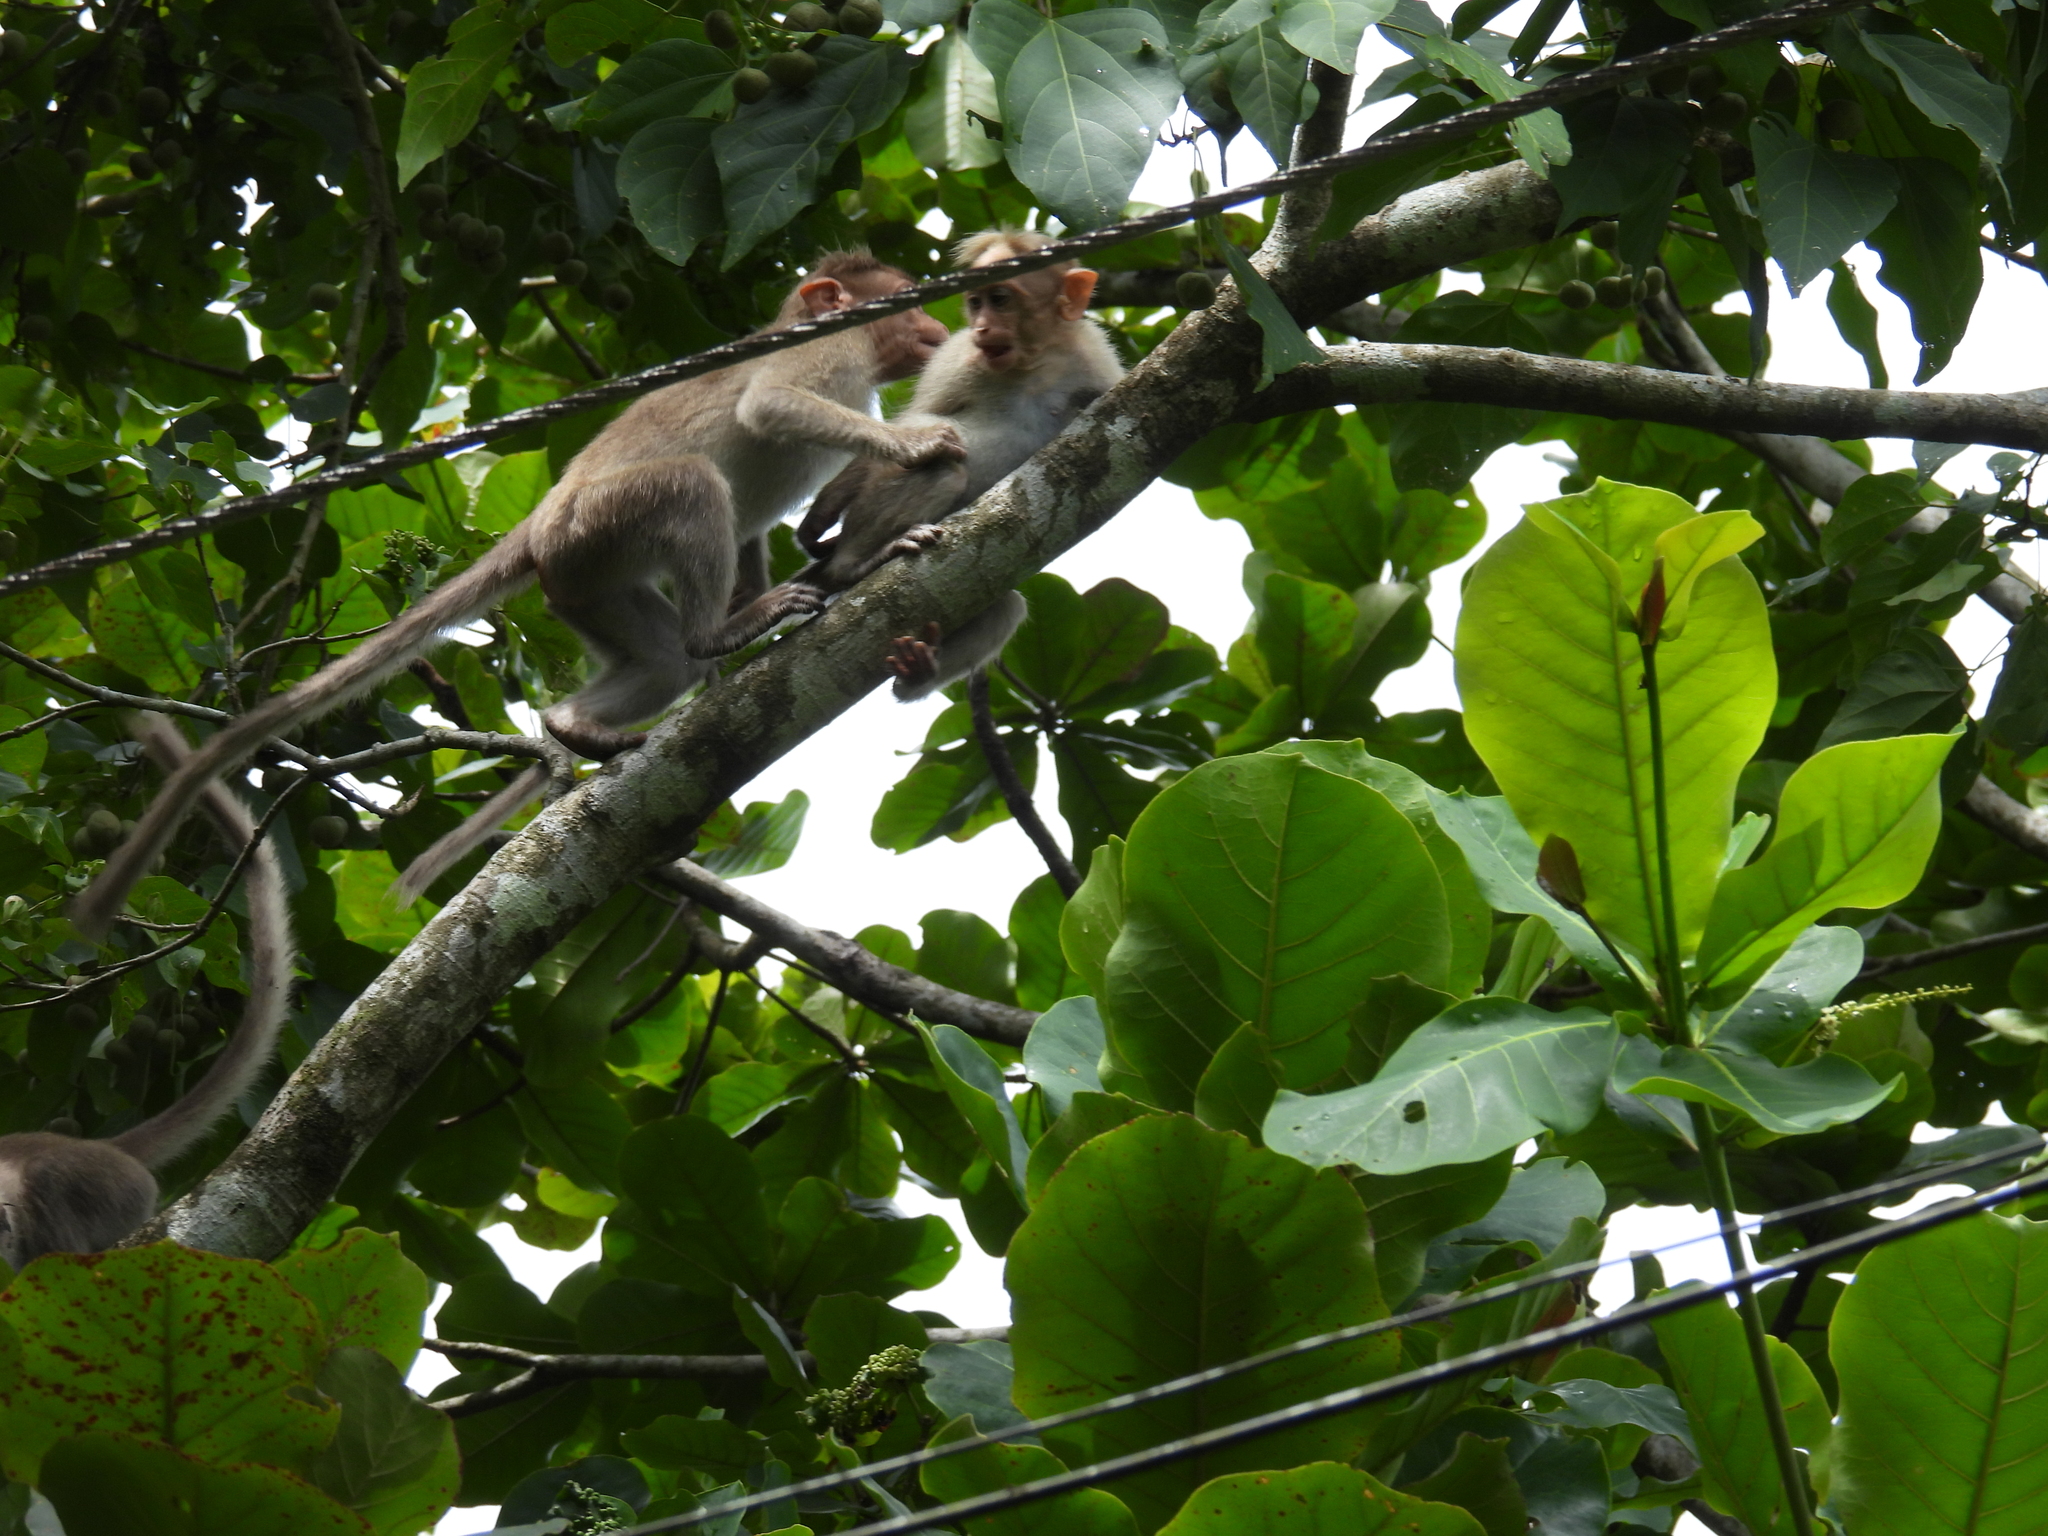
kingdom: Animalia
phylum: Chordata
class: Mammalia
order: Primates
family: Cercopithecidae
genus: Macaca
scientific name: Macaca radiata
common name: Bonnet macaque
